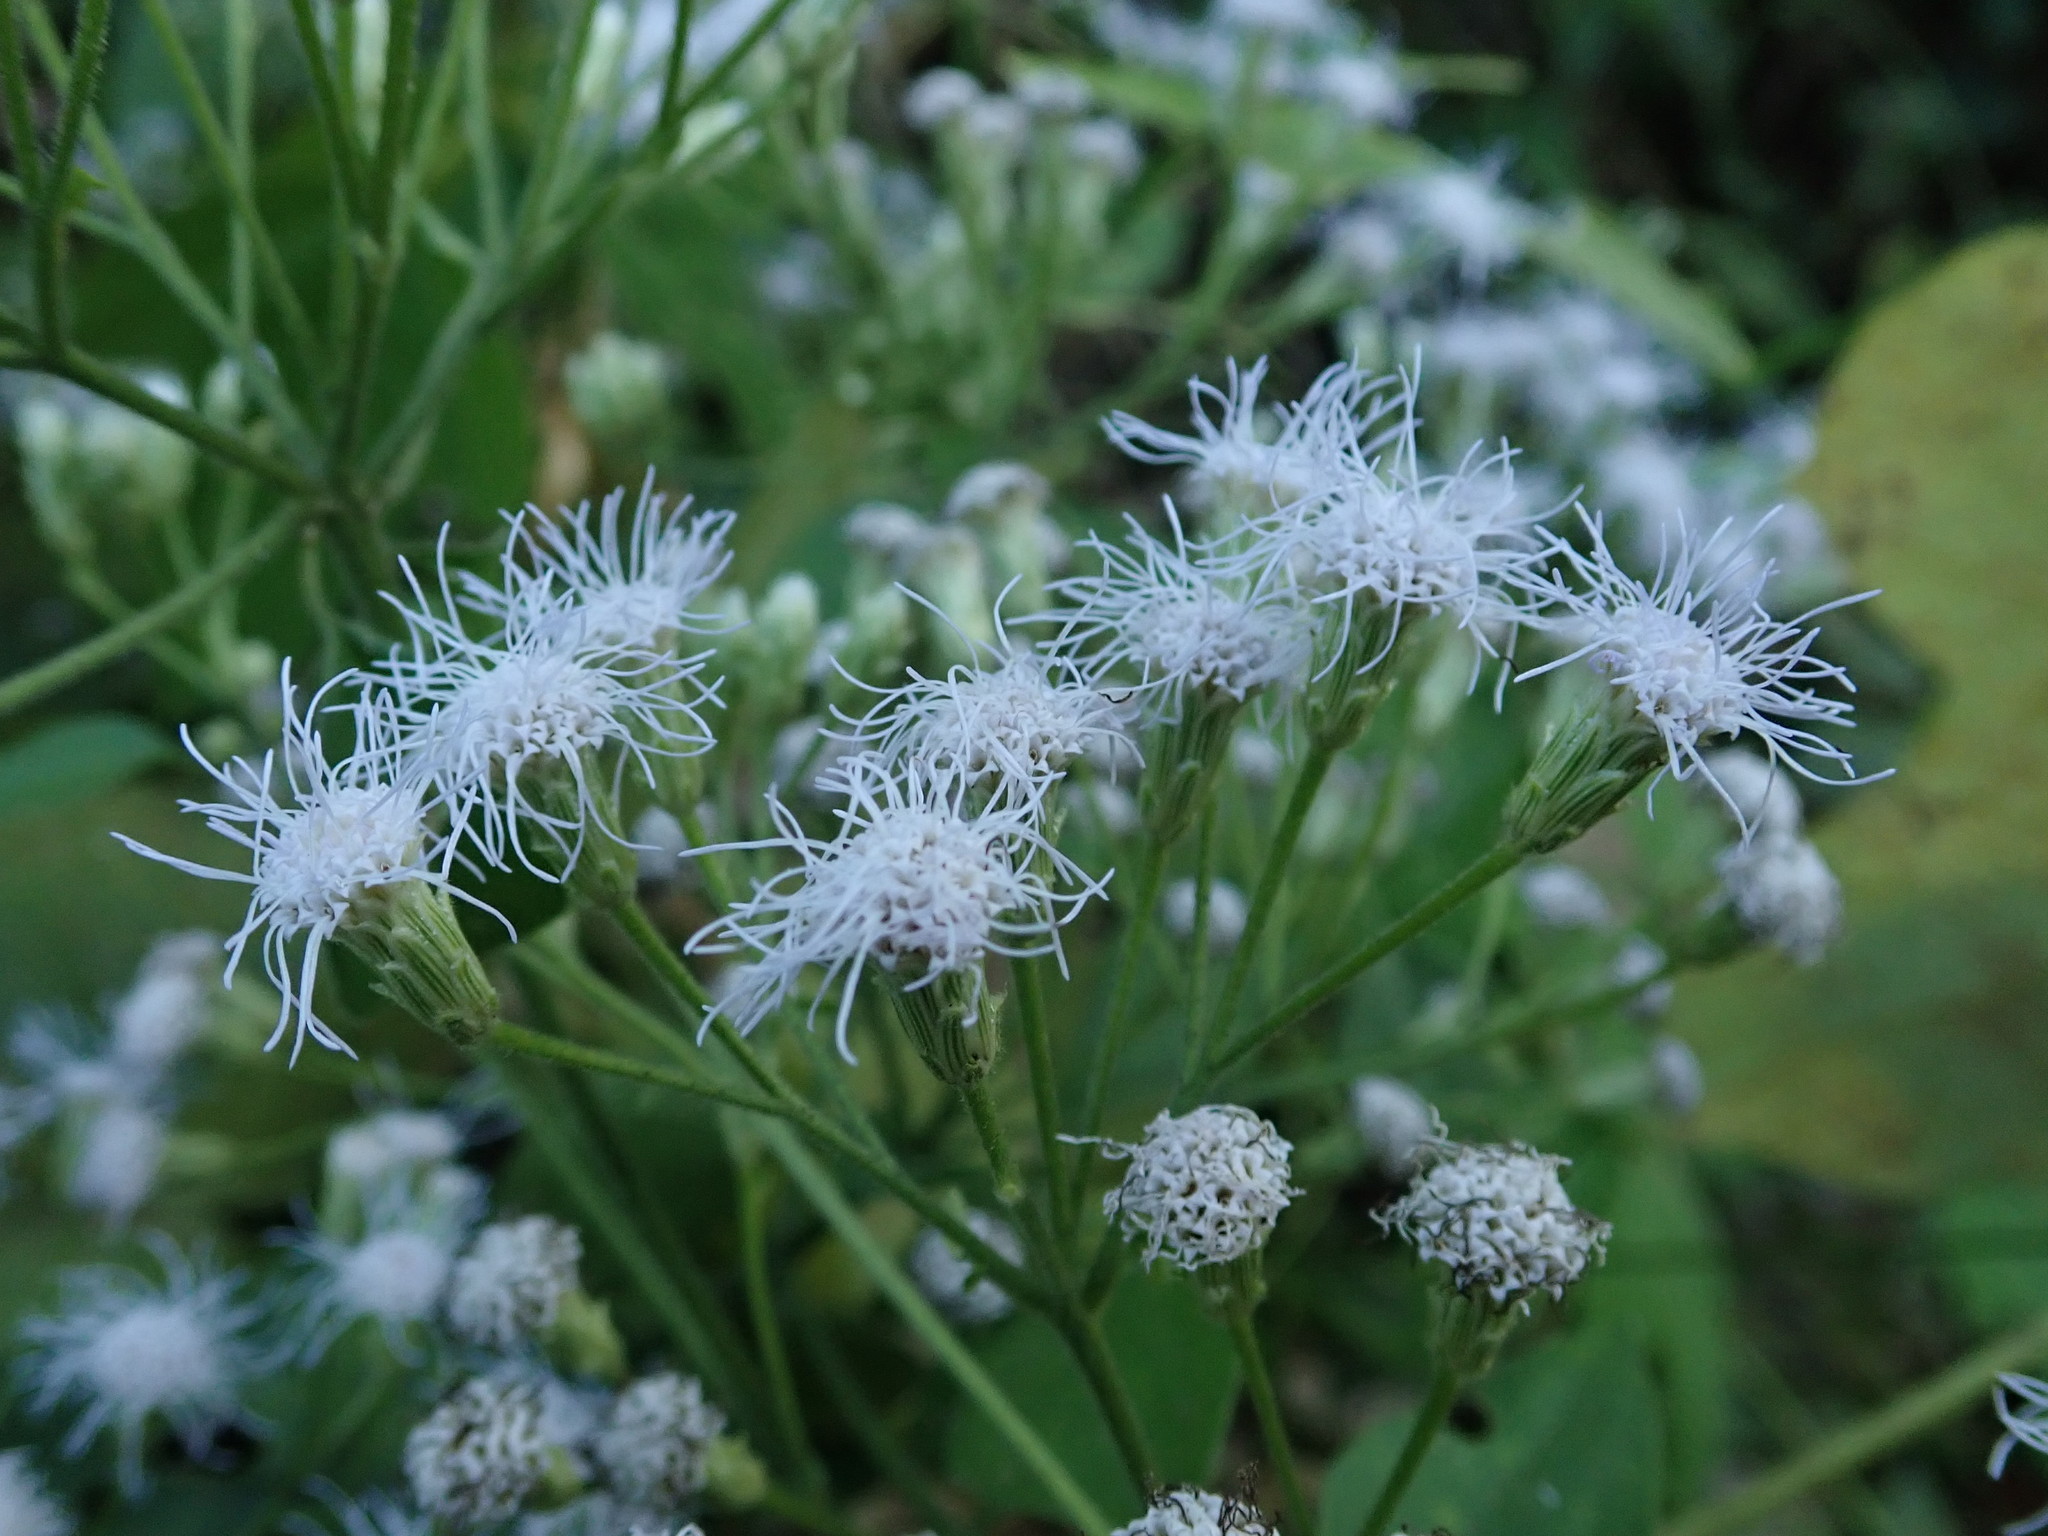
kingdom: Plantae
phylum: Tracheophyta
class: Magnoliopsida
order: Asterales
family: Asteraceae
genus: Chromolaena
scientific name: Chromolaena odorata
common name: Siamweed
